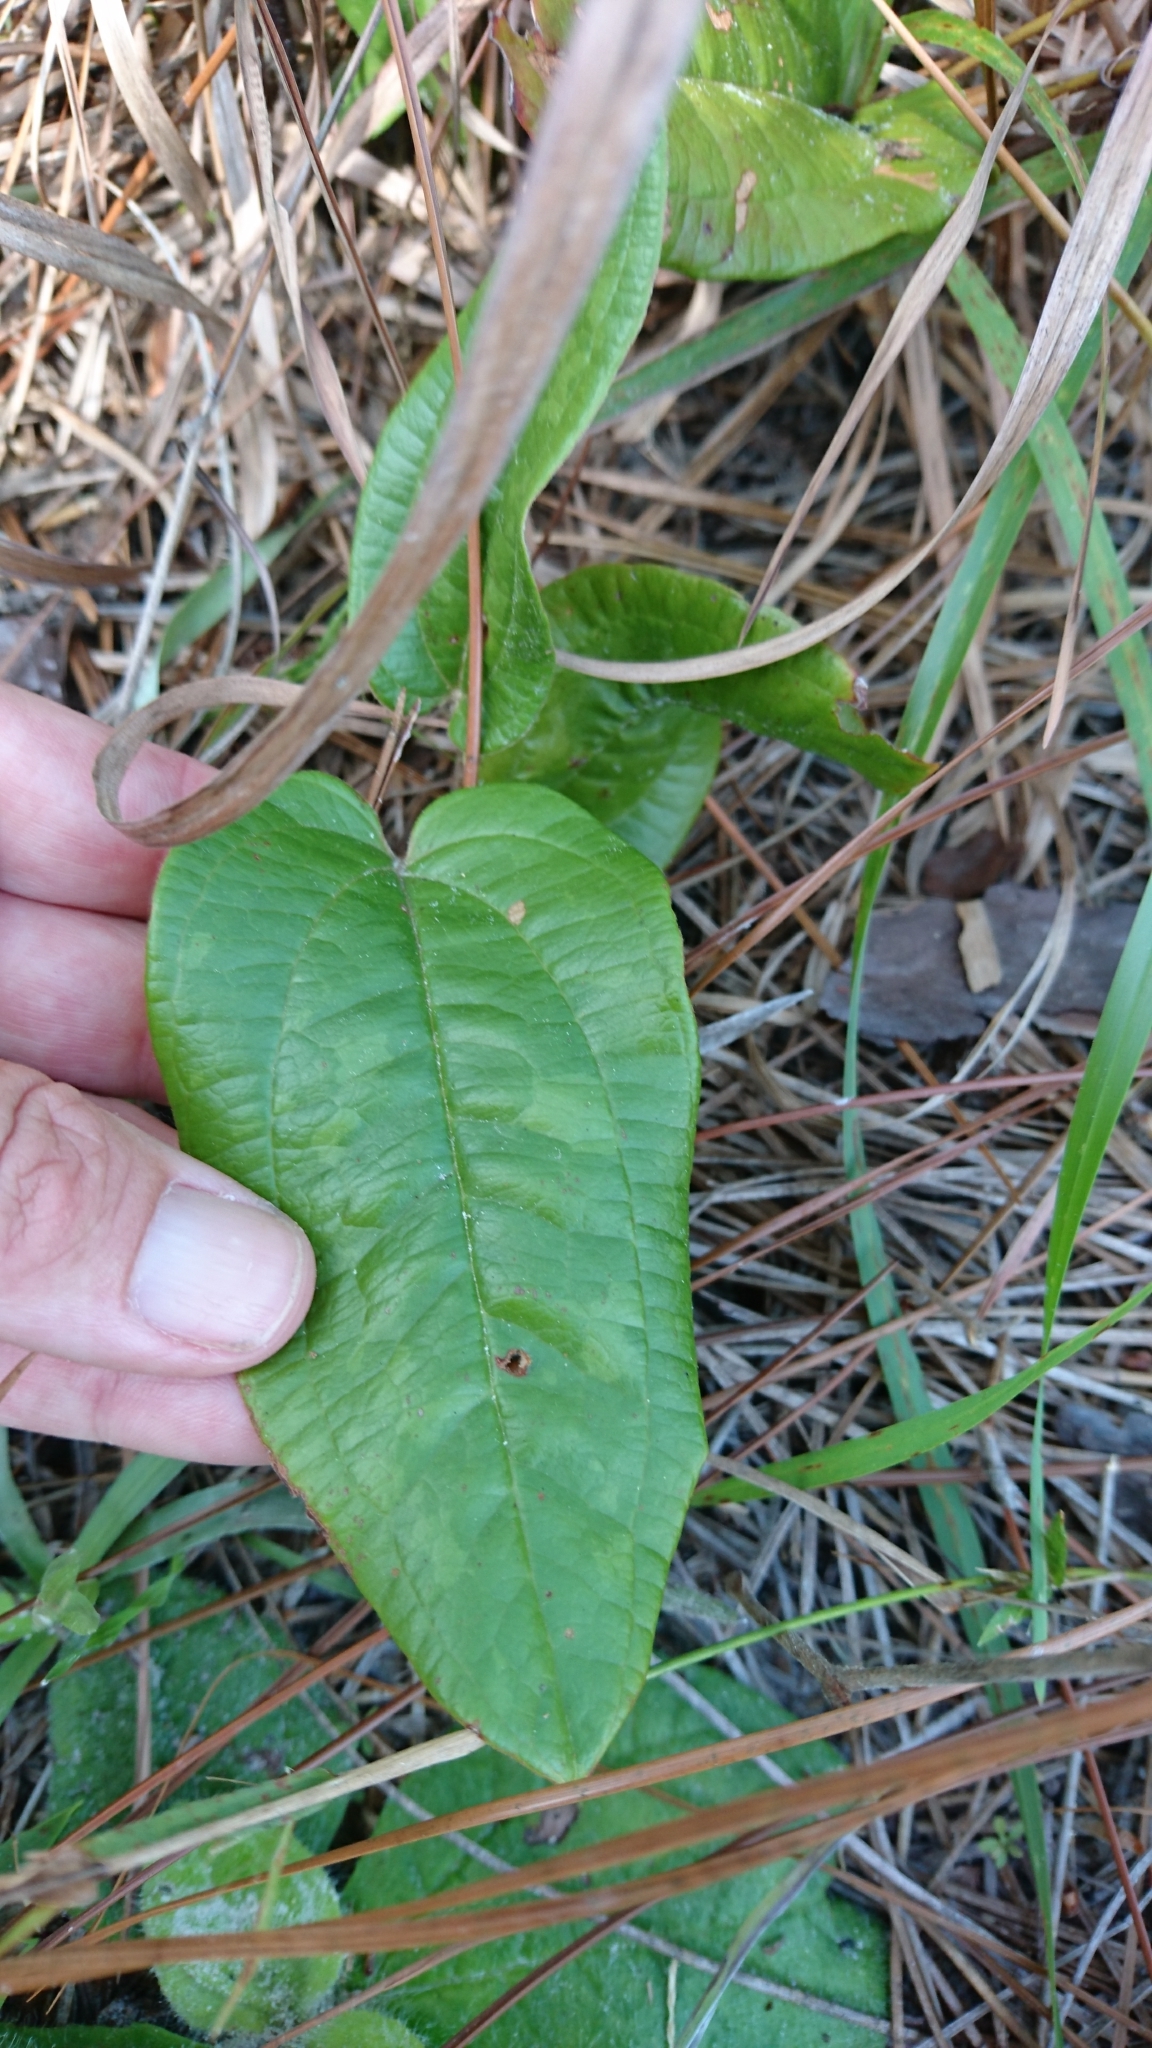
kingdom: Plantae
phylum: Tracheophyta
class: Liliopsida
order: Liliales
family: Smilacaceae
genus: Smilax
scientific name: Smilax pumila
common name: Sarsaparilla-vine
